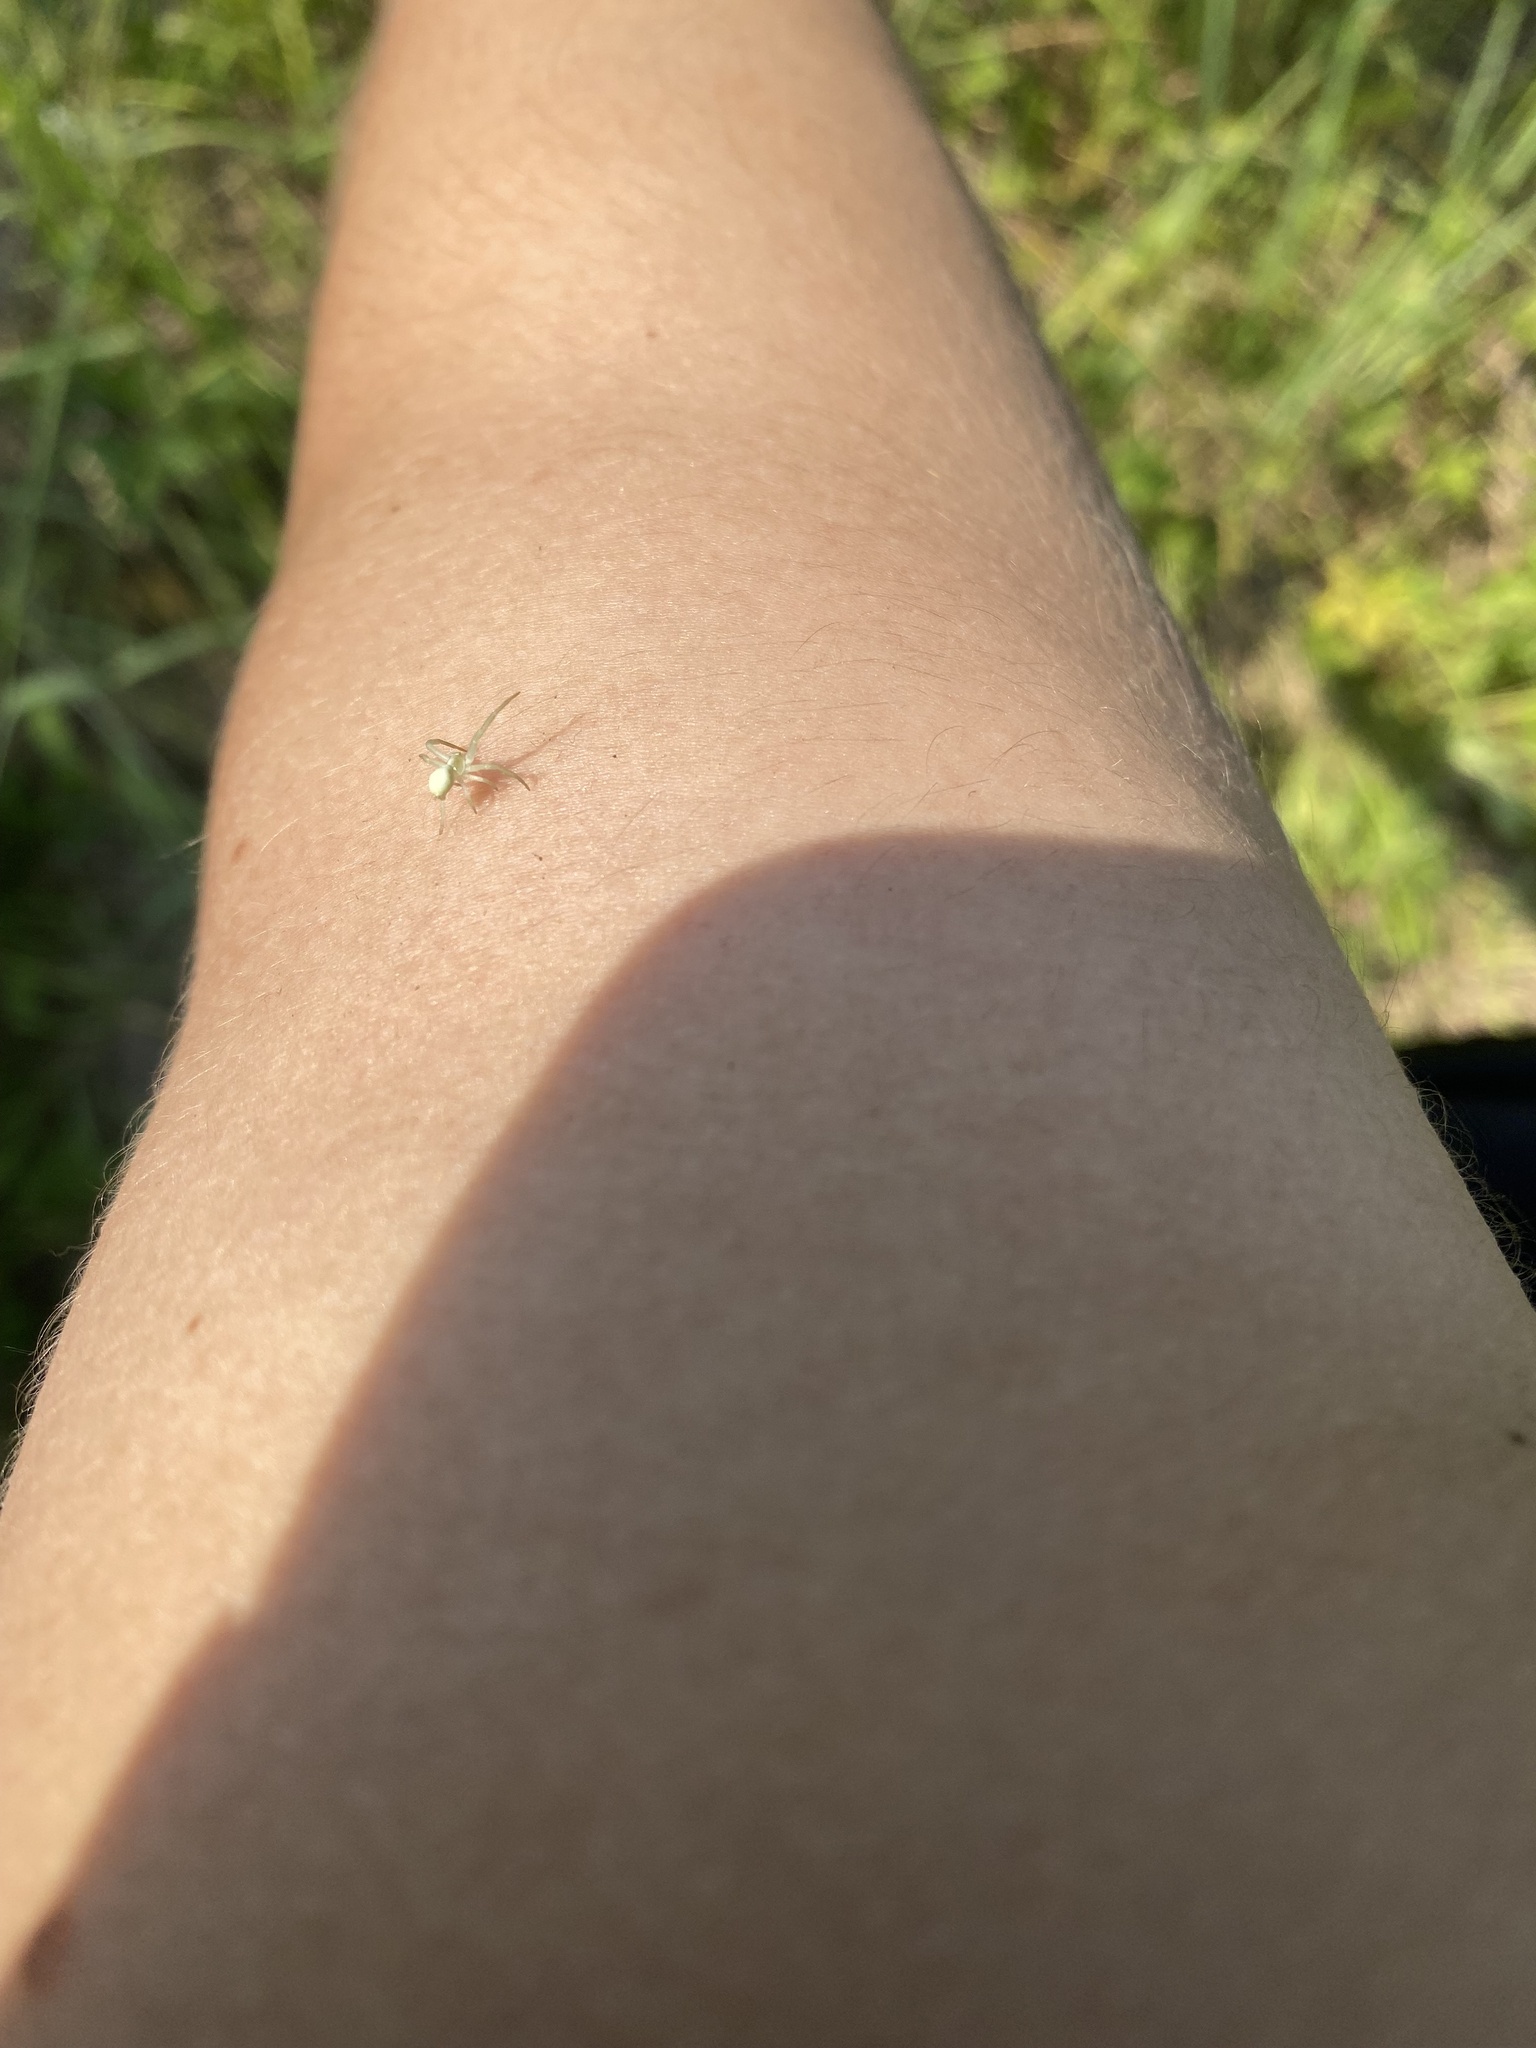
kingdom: Animalia
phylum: Arthropoda
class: Arachnida
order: Araneae
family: Thomisidae
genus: Misumena
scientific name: Misumena vatia
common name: Goldenrod crab spider
